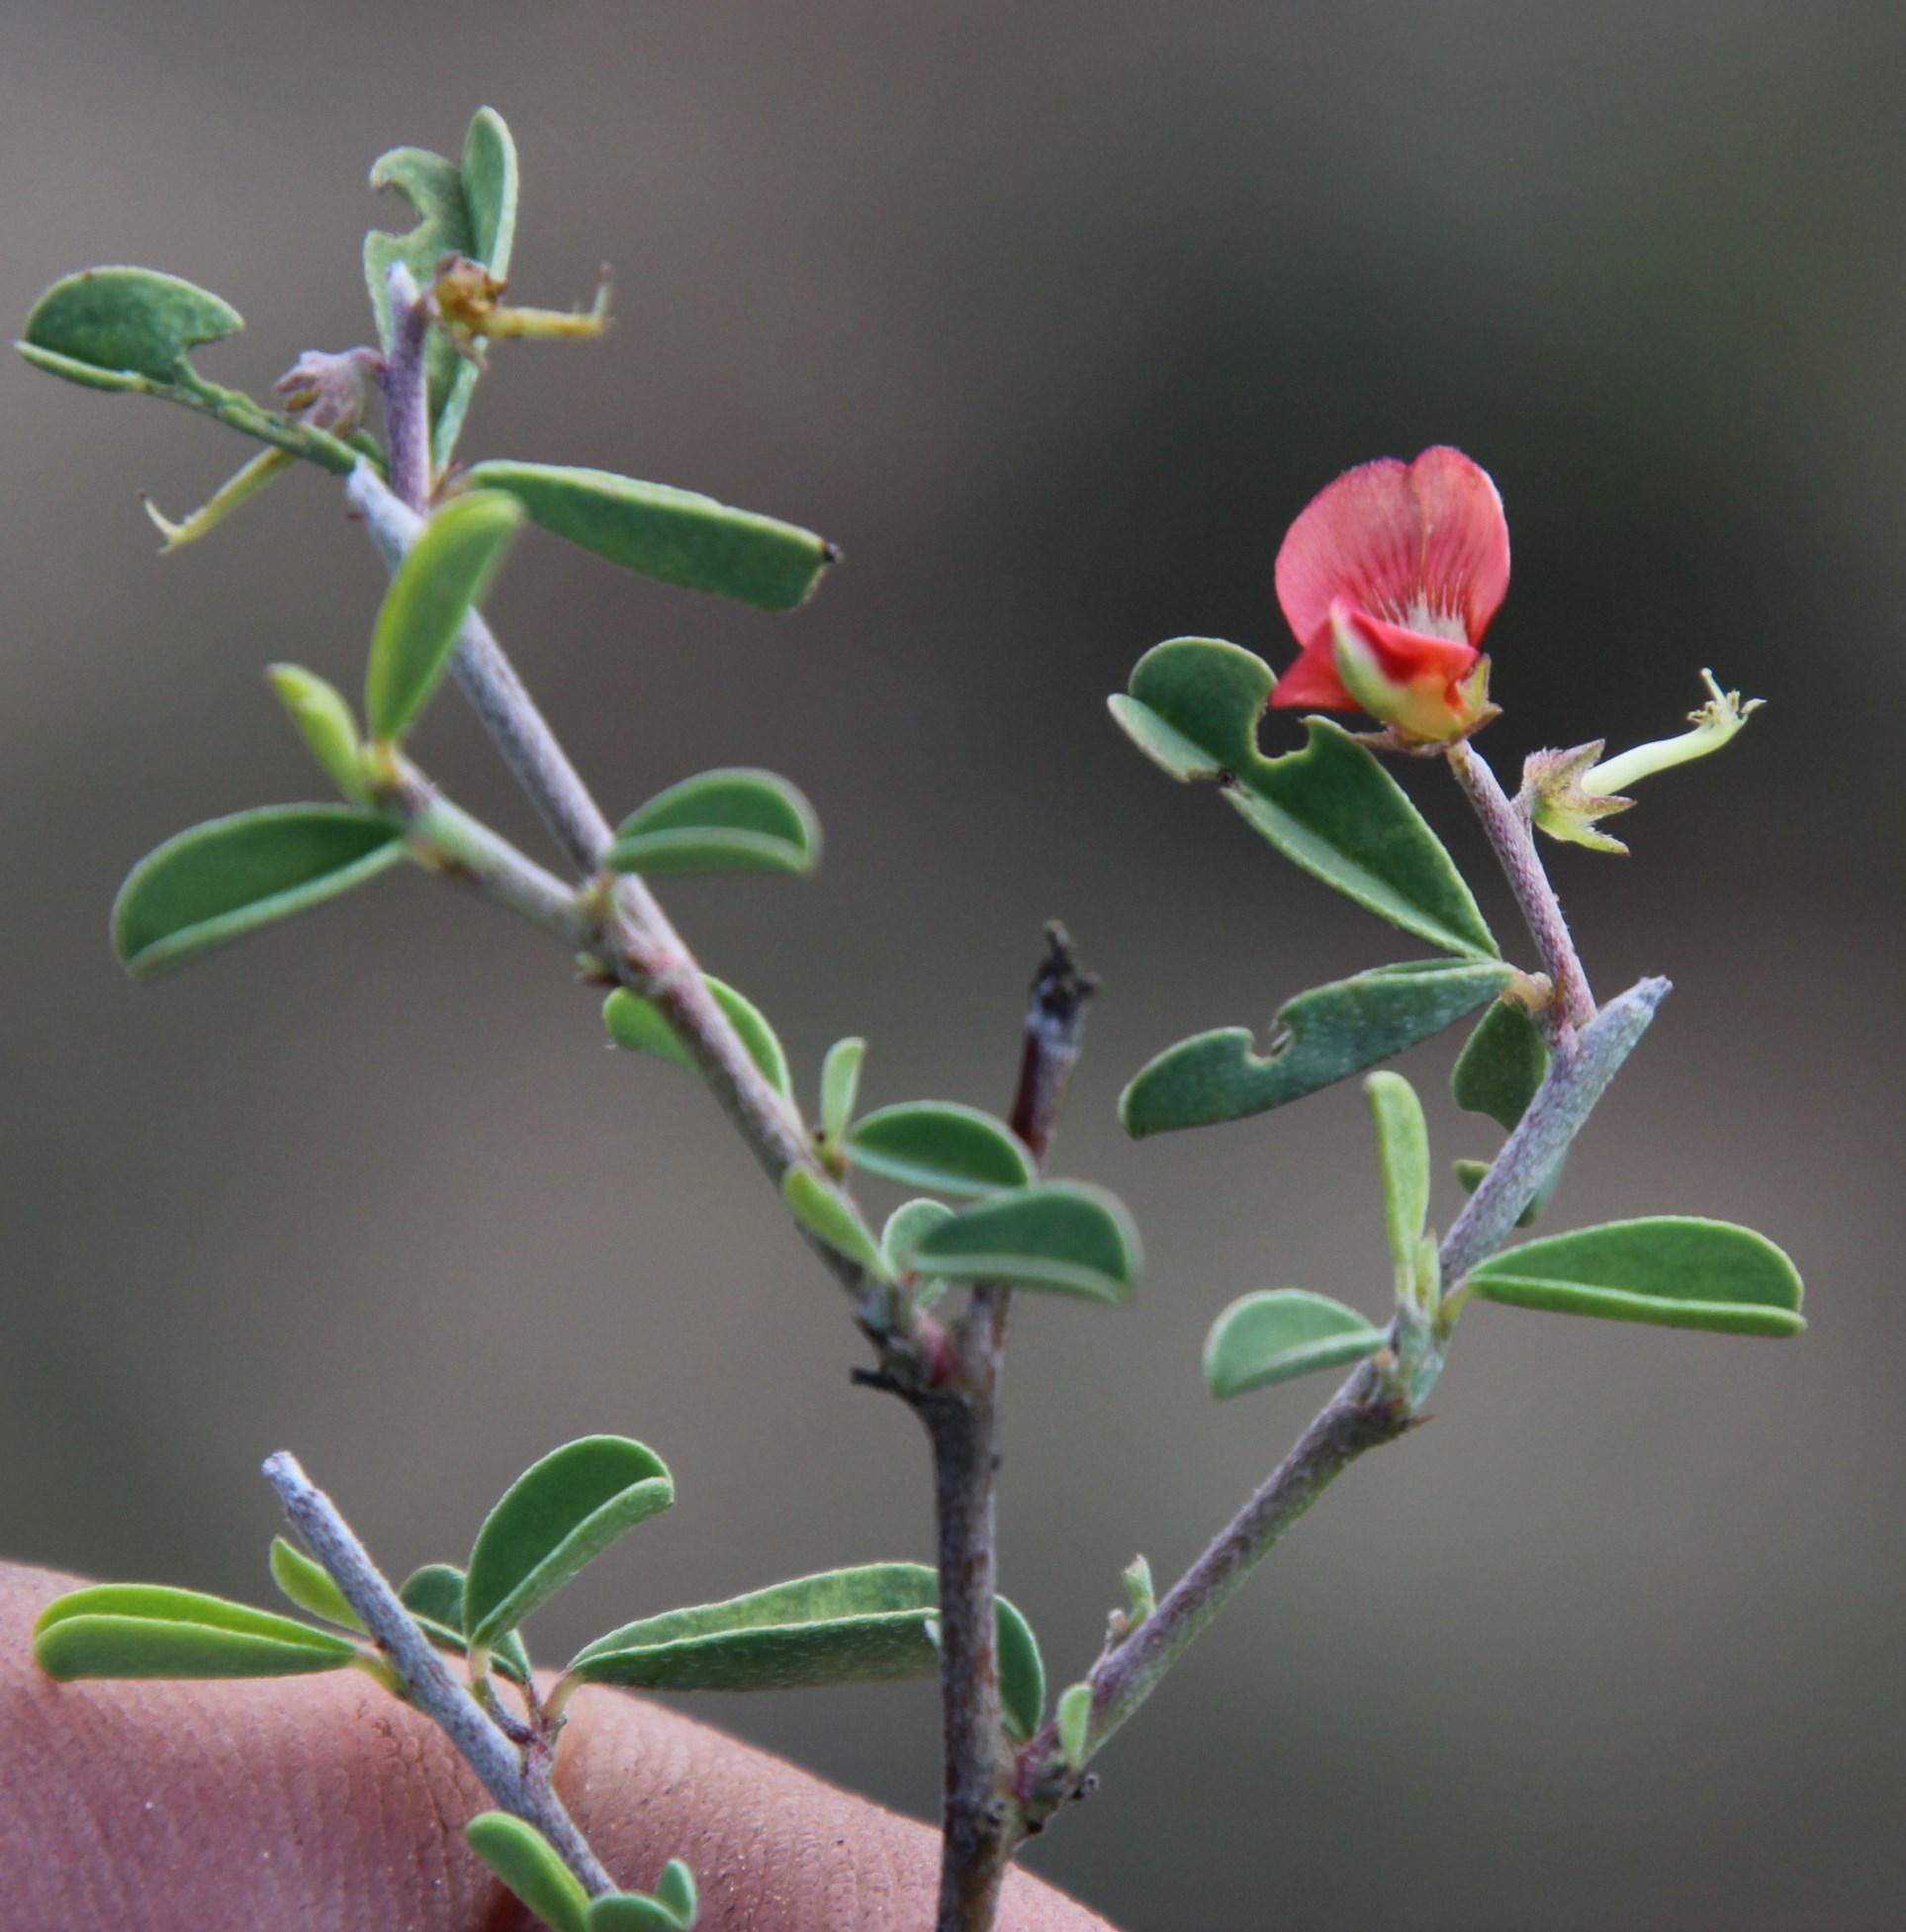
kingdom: Plantae
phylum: Tracheophyta
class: Magnoliopsida
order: Fabales
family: Fabaceae
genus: Indigofera
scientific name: Indigofera sessilifolia
